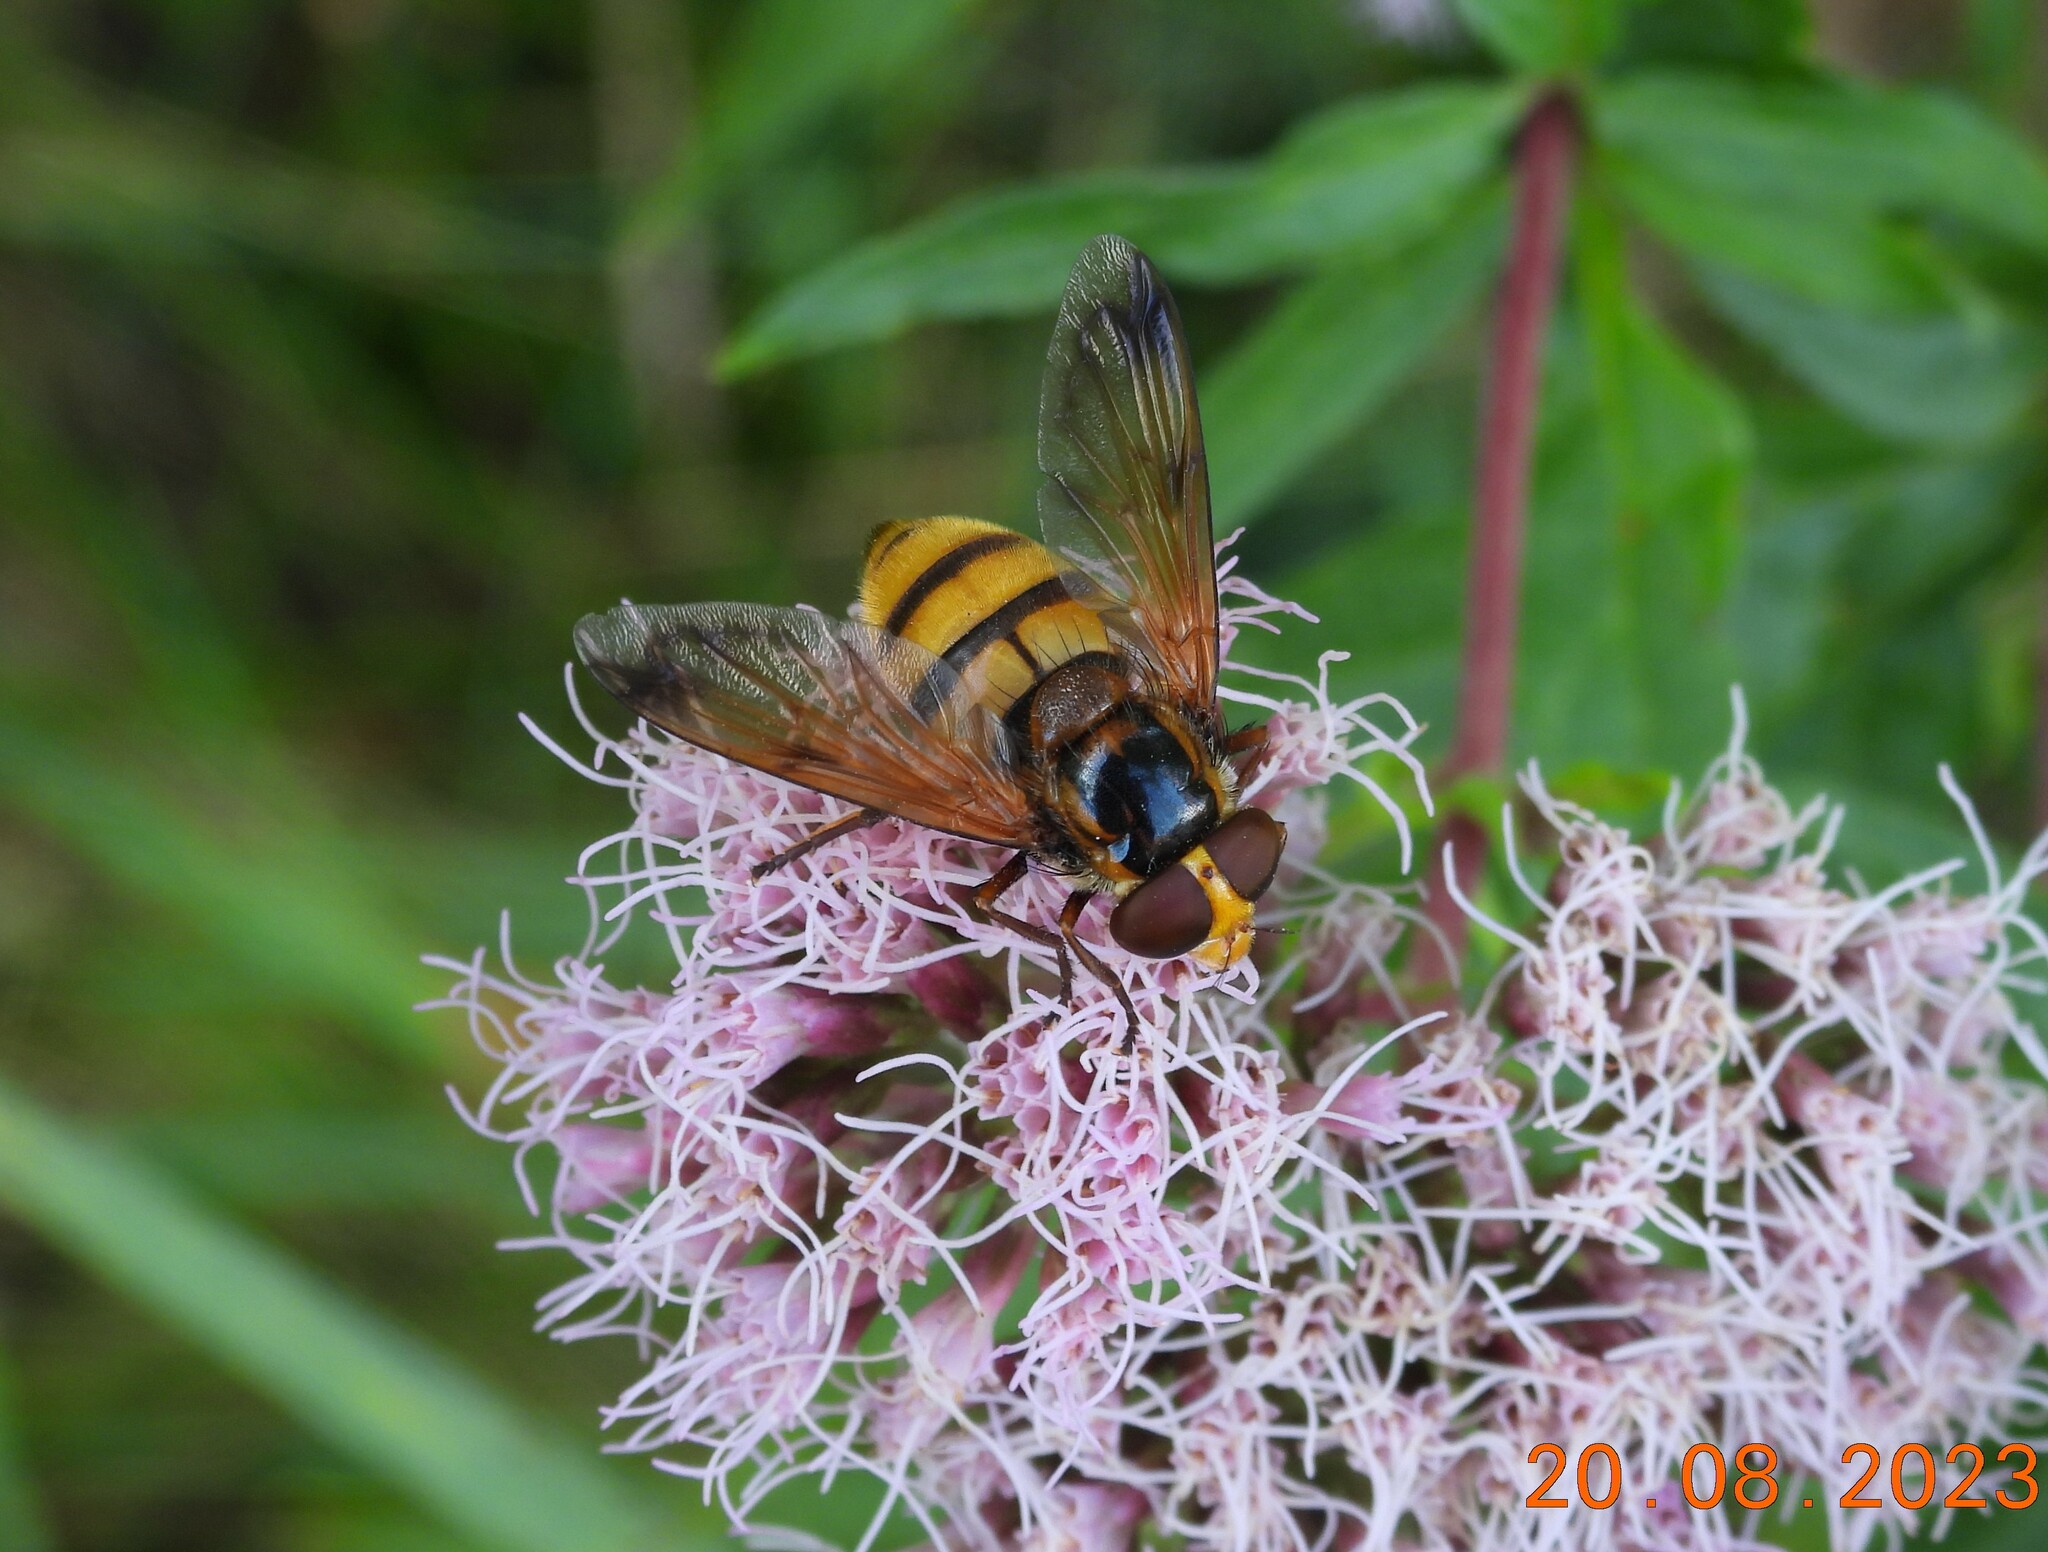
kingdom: Animalia
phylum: Arthropoda
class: Insecta
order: Diptera
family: Syrphidae
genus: Volucella
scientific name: Volucella inanis
